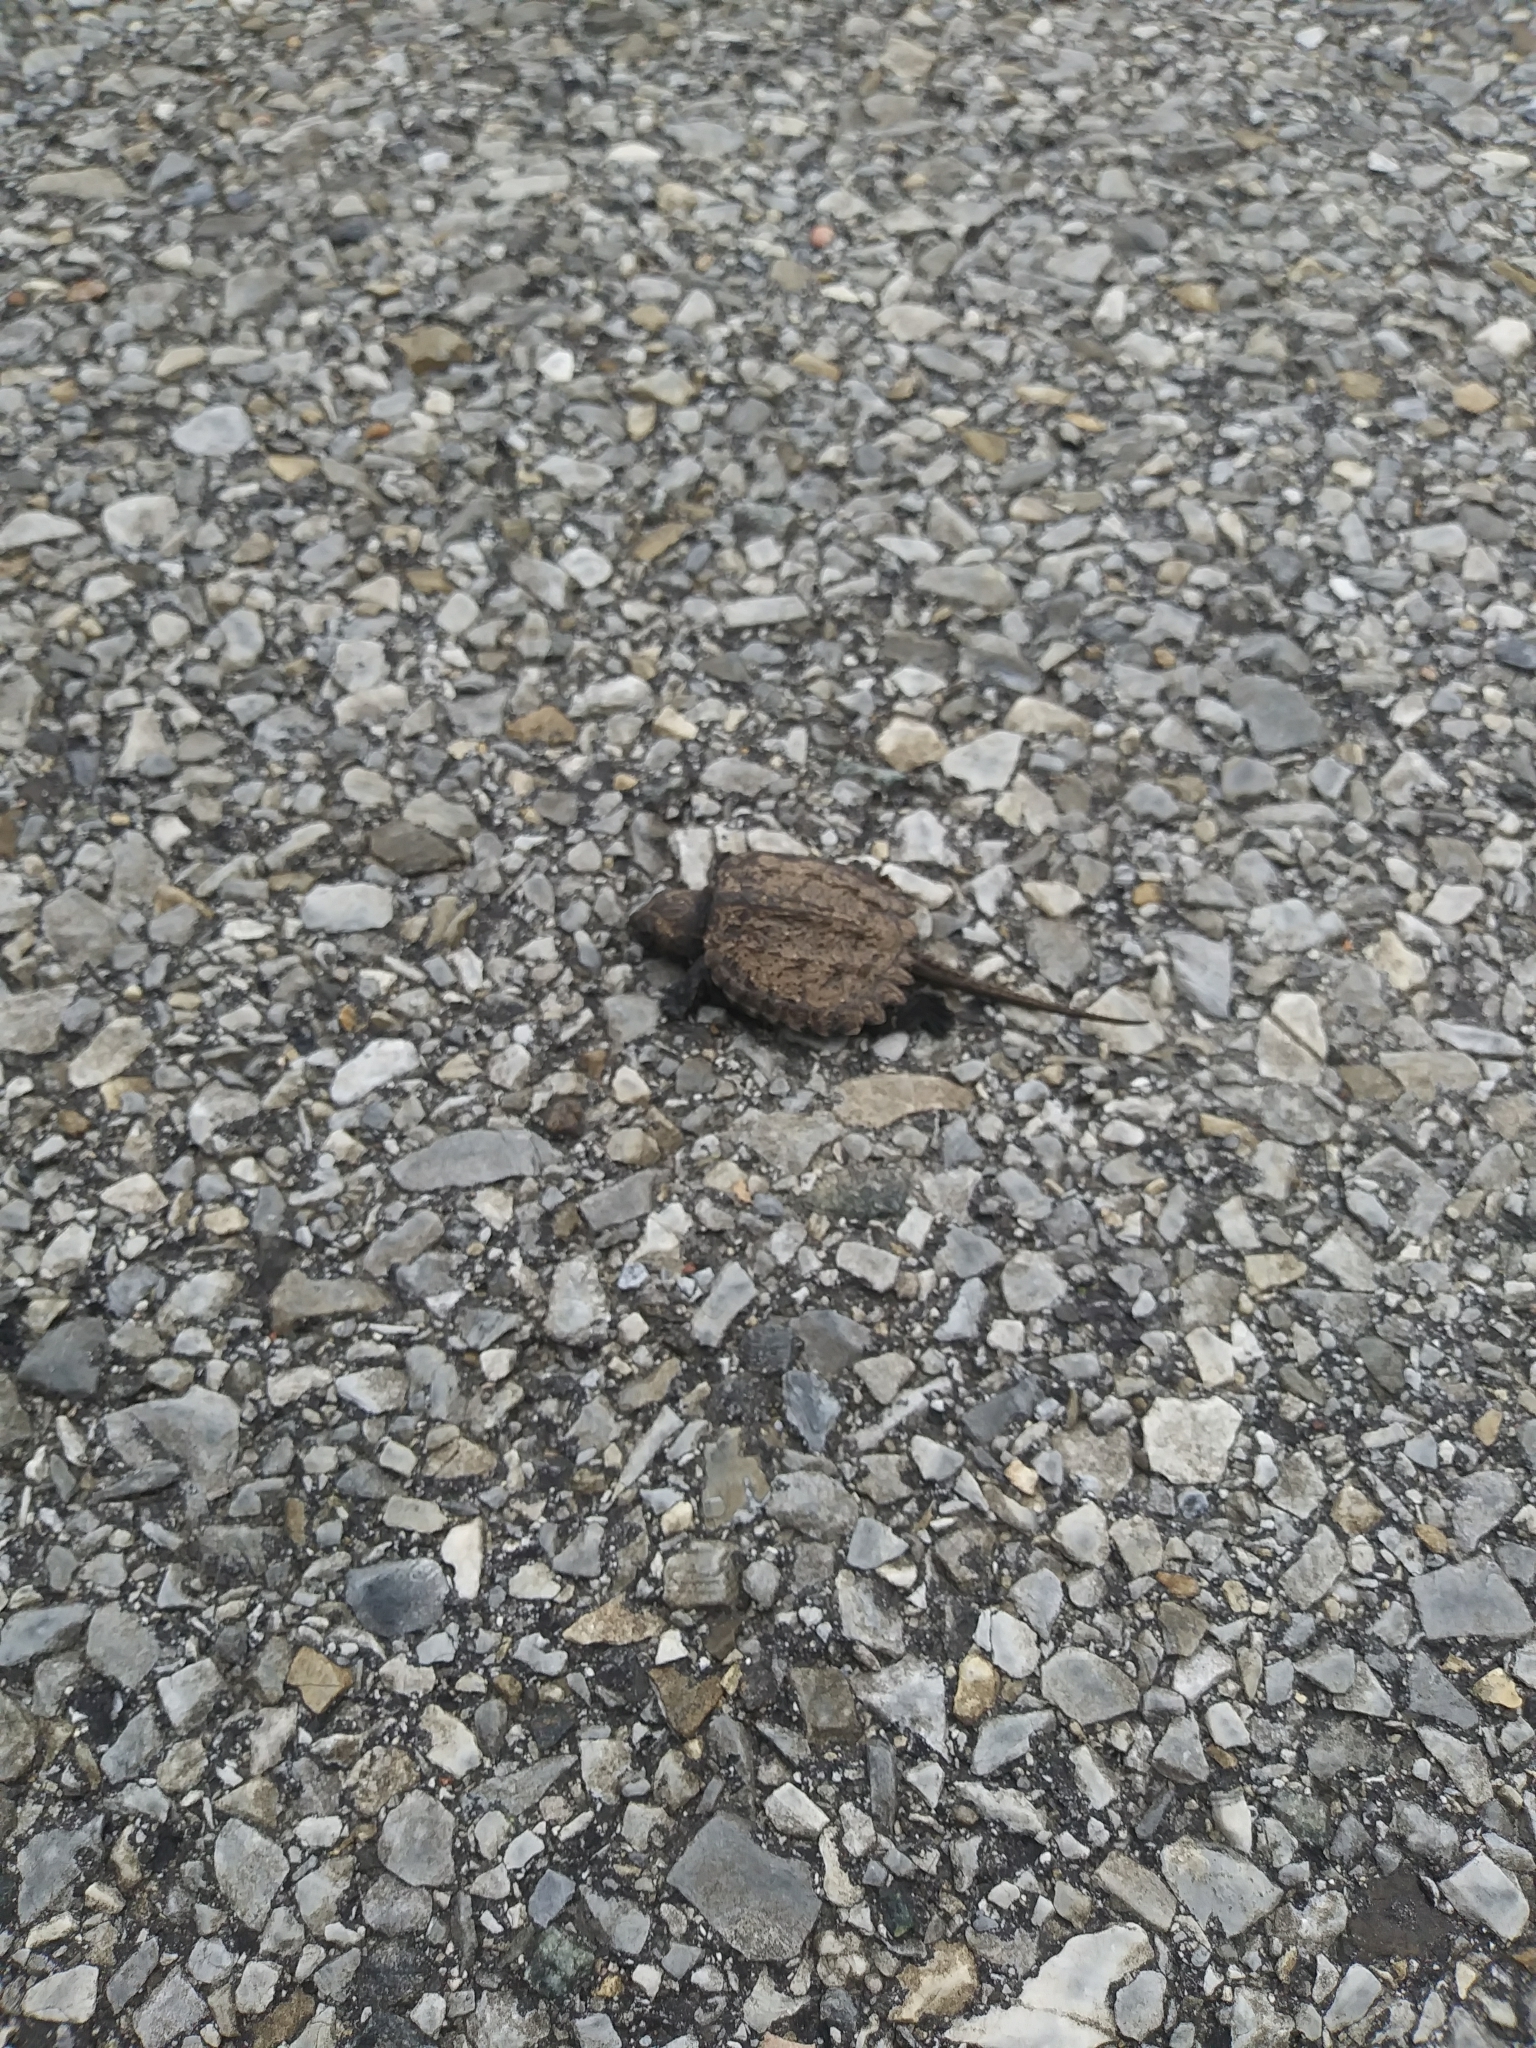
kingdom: Animalia
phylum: Chordata
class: Testudines
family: Chelydridae
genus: Chelydra
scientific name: Chelydra serpentina
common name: Common snapping turtle
